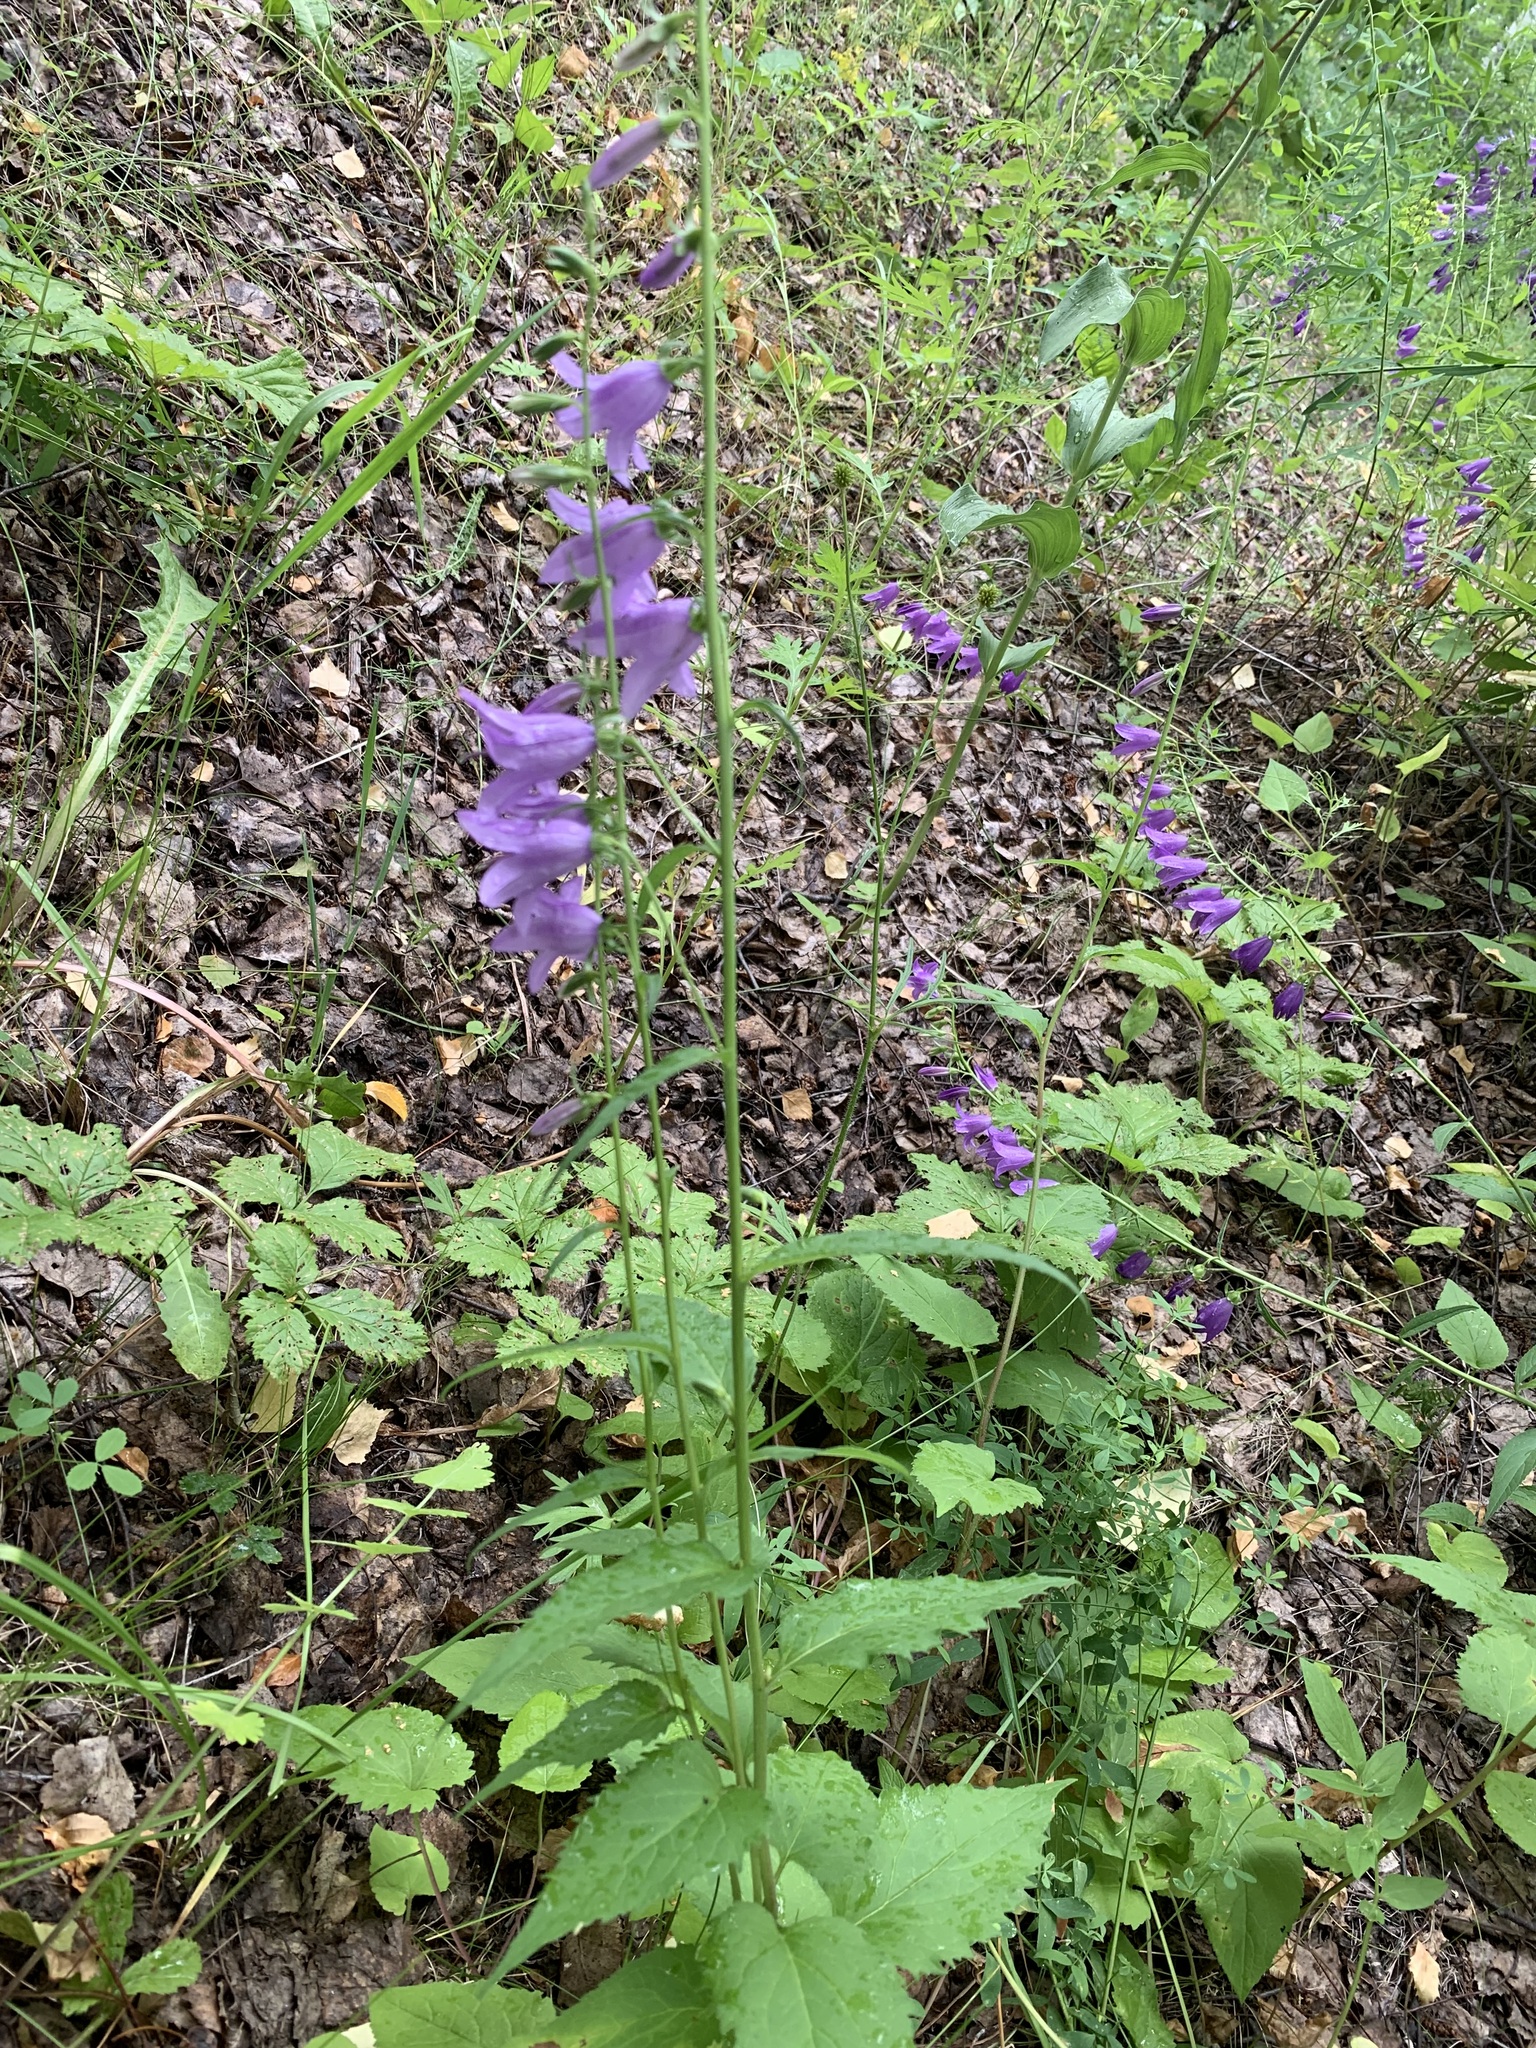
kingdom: Plantae
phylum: Tracheophyta
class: Magnoliopsida
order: Asterales
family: Campanulaceae
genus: Campanula
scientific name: Campanula rapunculoides
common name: Creeping bellflower
